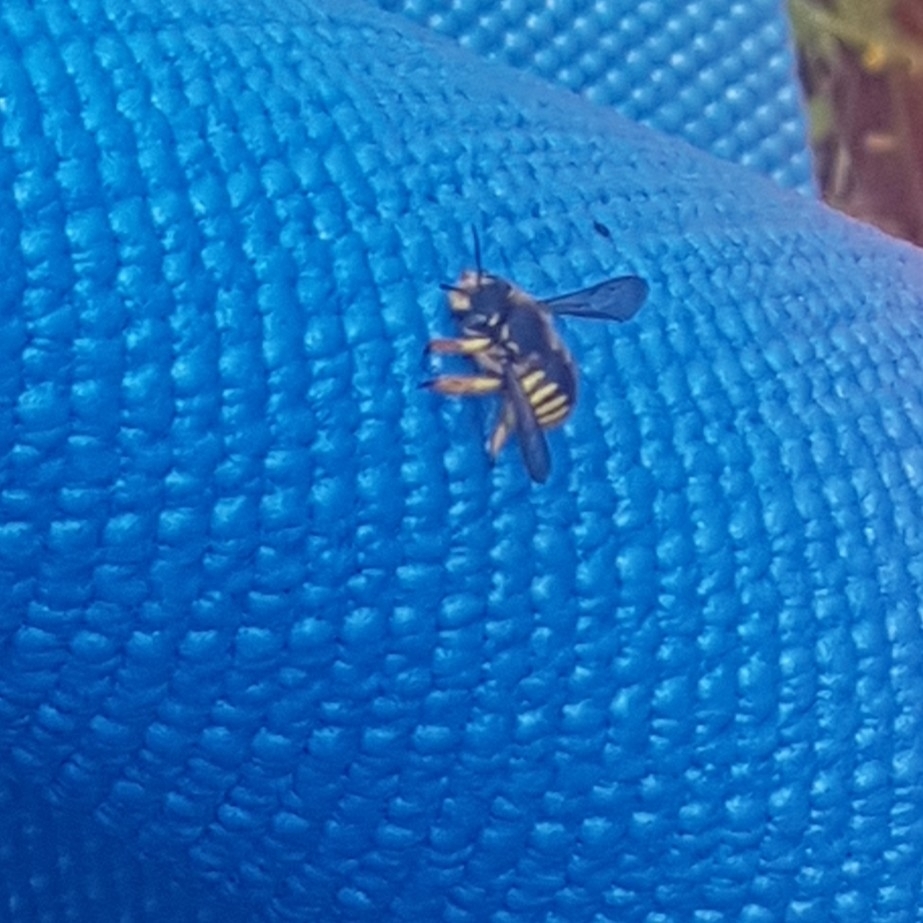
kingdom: Animalia
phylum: Arthropoda
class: Insecta
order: Hymenoptera
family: Megachilidae
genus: Anthidium
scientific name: Anthidium manicatum
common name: Wool carder bee
